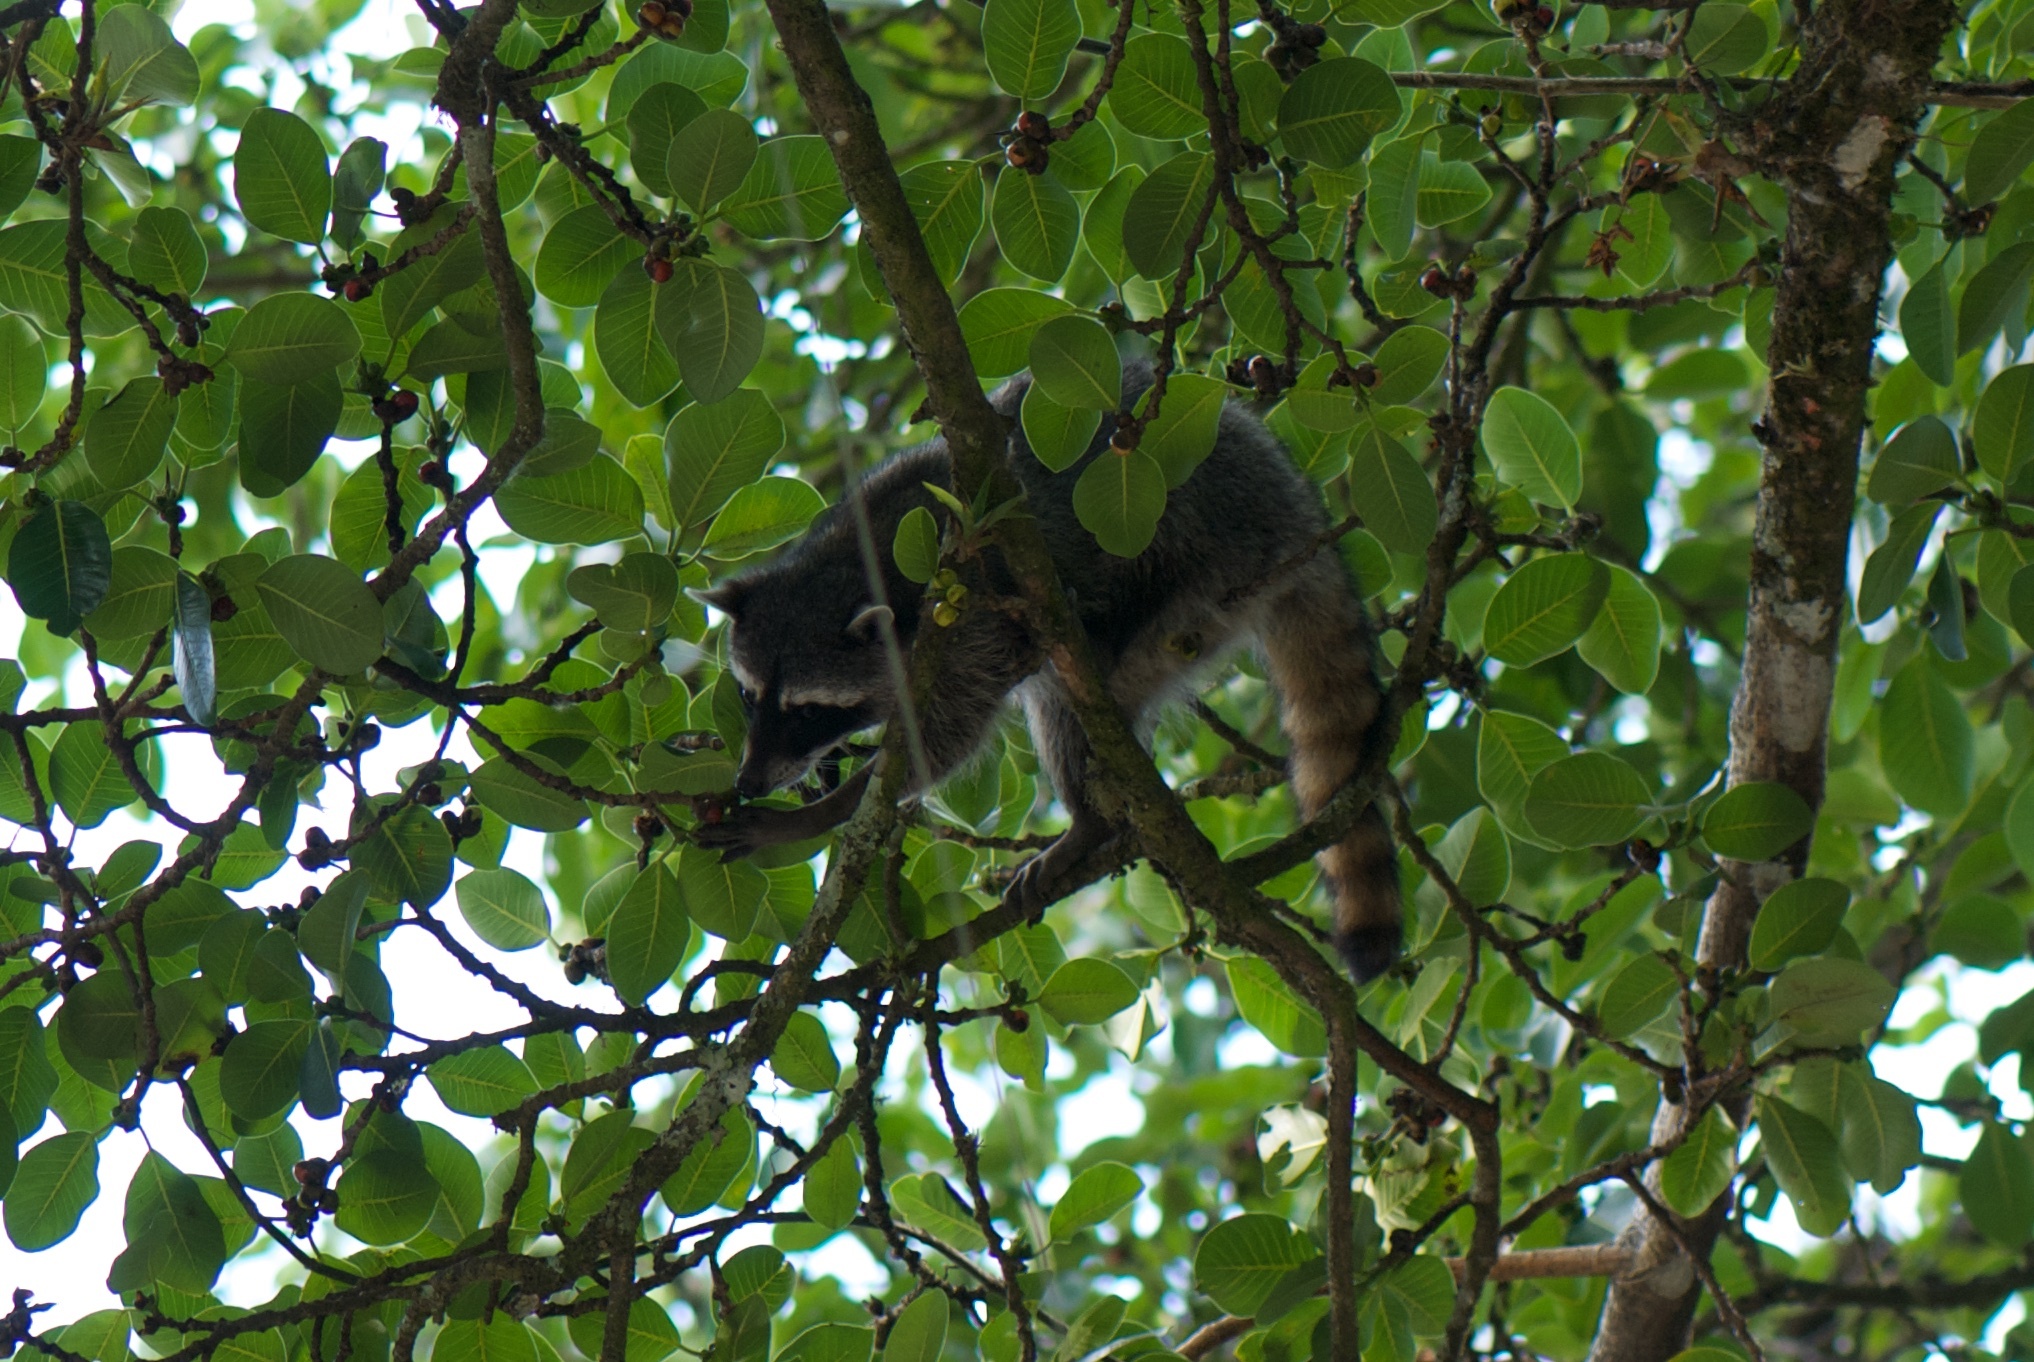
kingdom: Animalia
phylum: Chordata
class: Mammalia
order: Carnivora
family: Procyonidae
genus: Procyon
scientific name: Procyon lotor
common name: Raccoon
